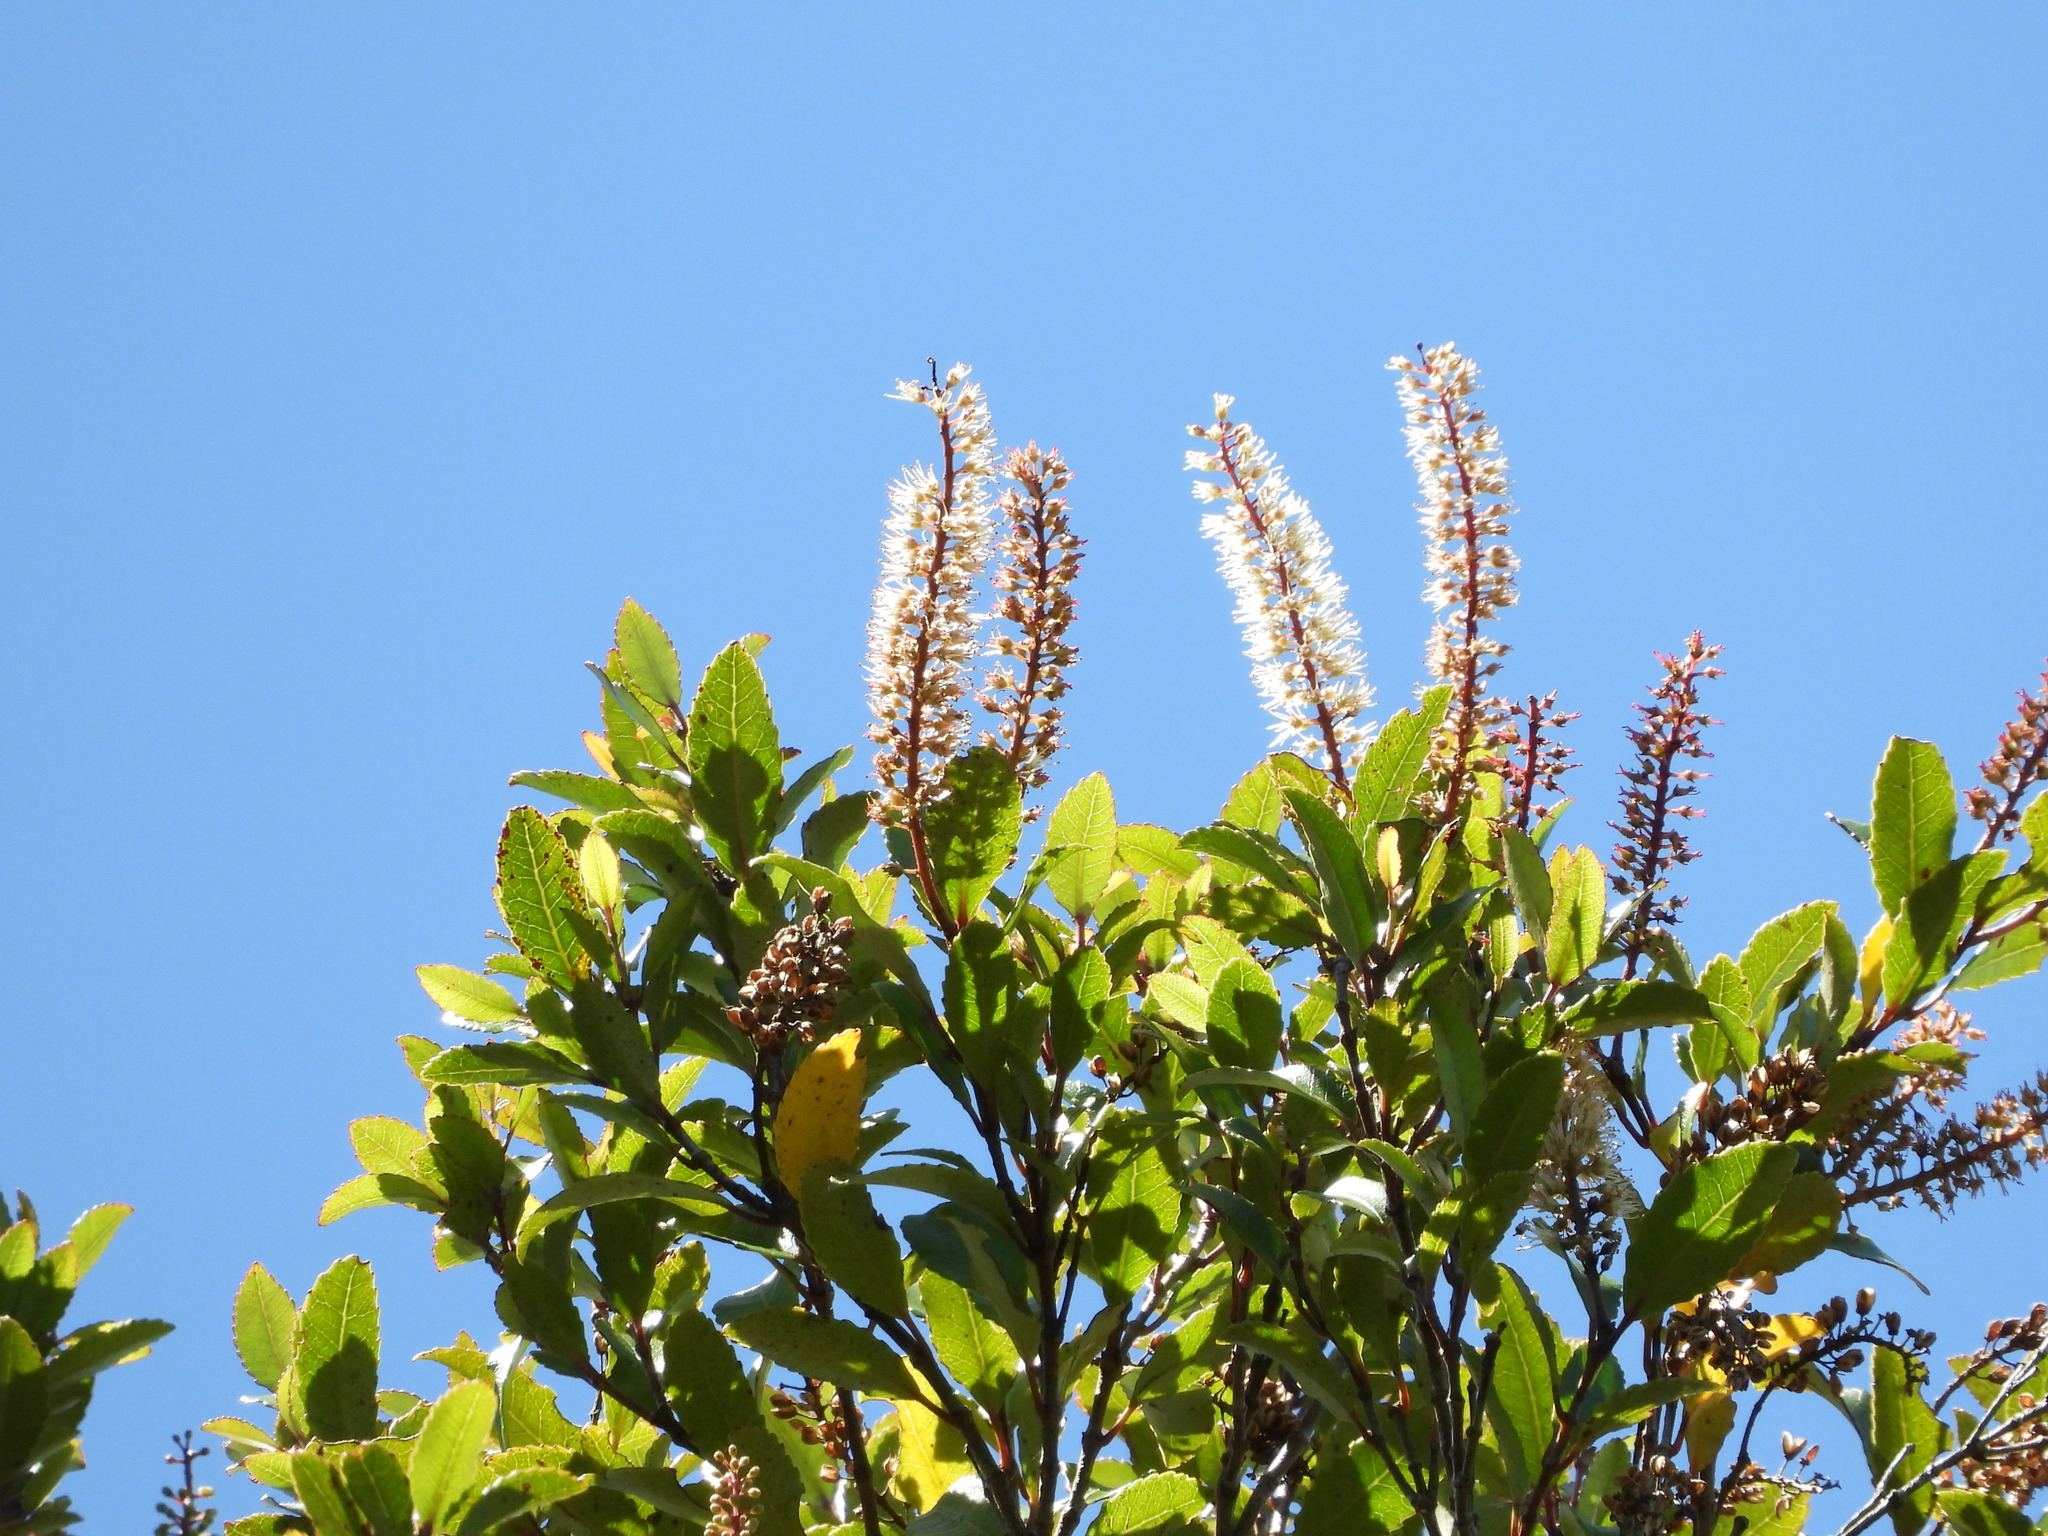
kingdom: Plantae
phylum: Tracheophyta
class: Magnoliopsida
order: Oxalidales
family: Cunoniaceae
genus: Pterophylla
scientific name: Pterophylla racemosa
